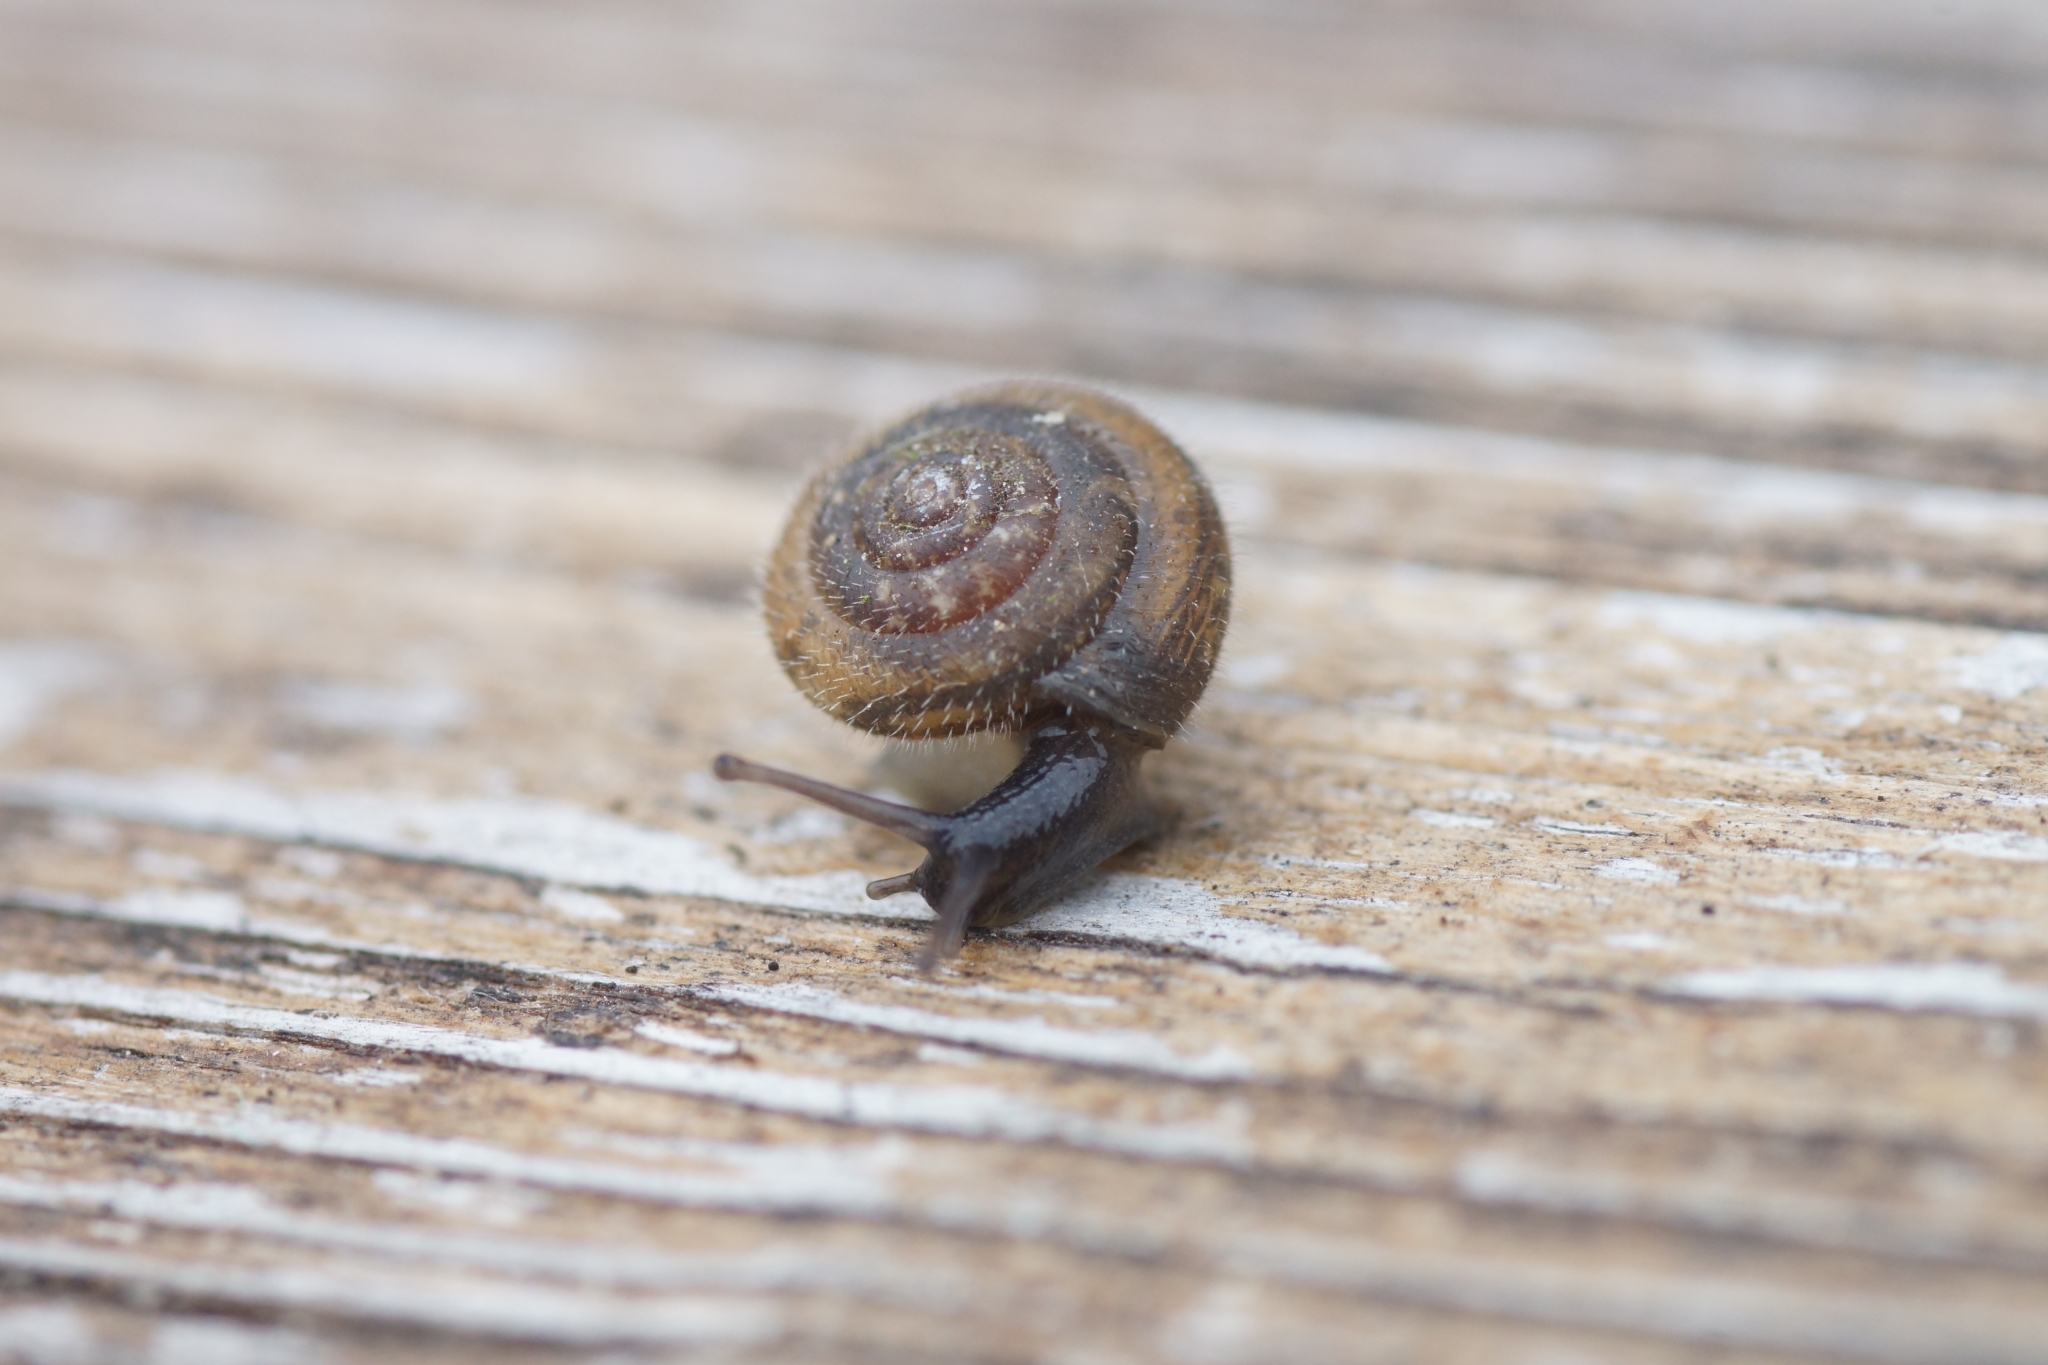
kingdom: Animalia
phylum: Mollusca
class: Gastropoda
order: Stylommatophora
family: Hygromiidae
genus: Trochulus
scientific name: Trochulus hispidus
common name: Hairy snail
